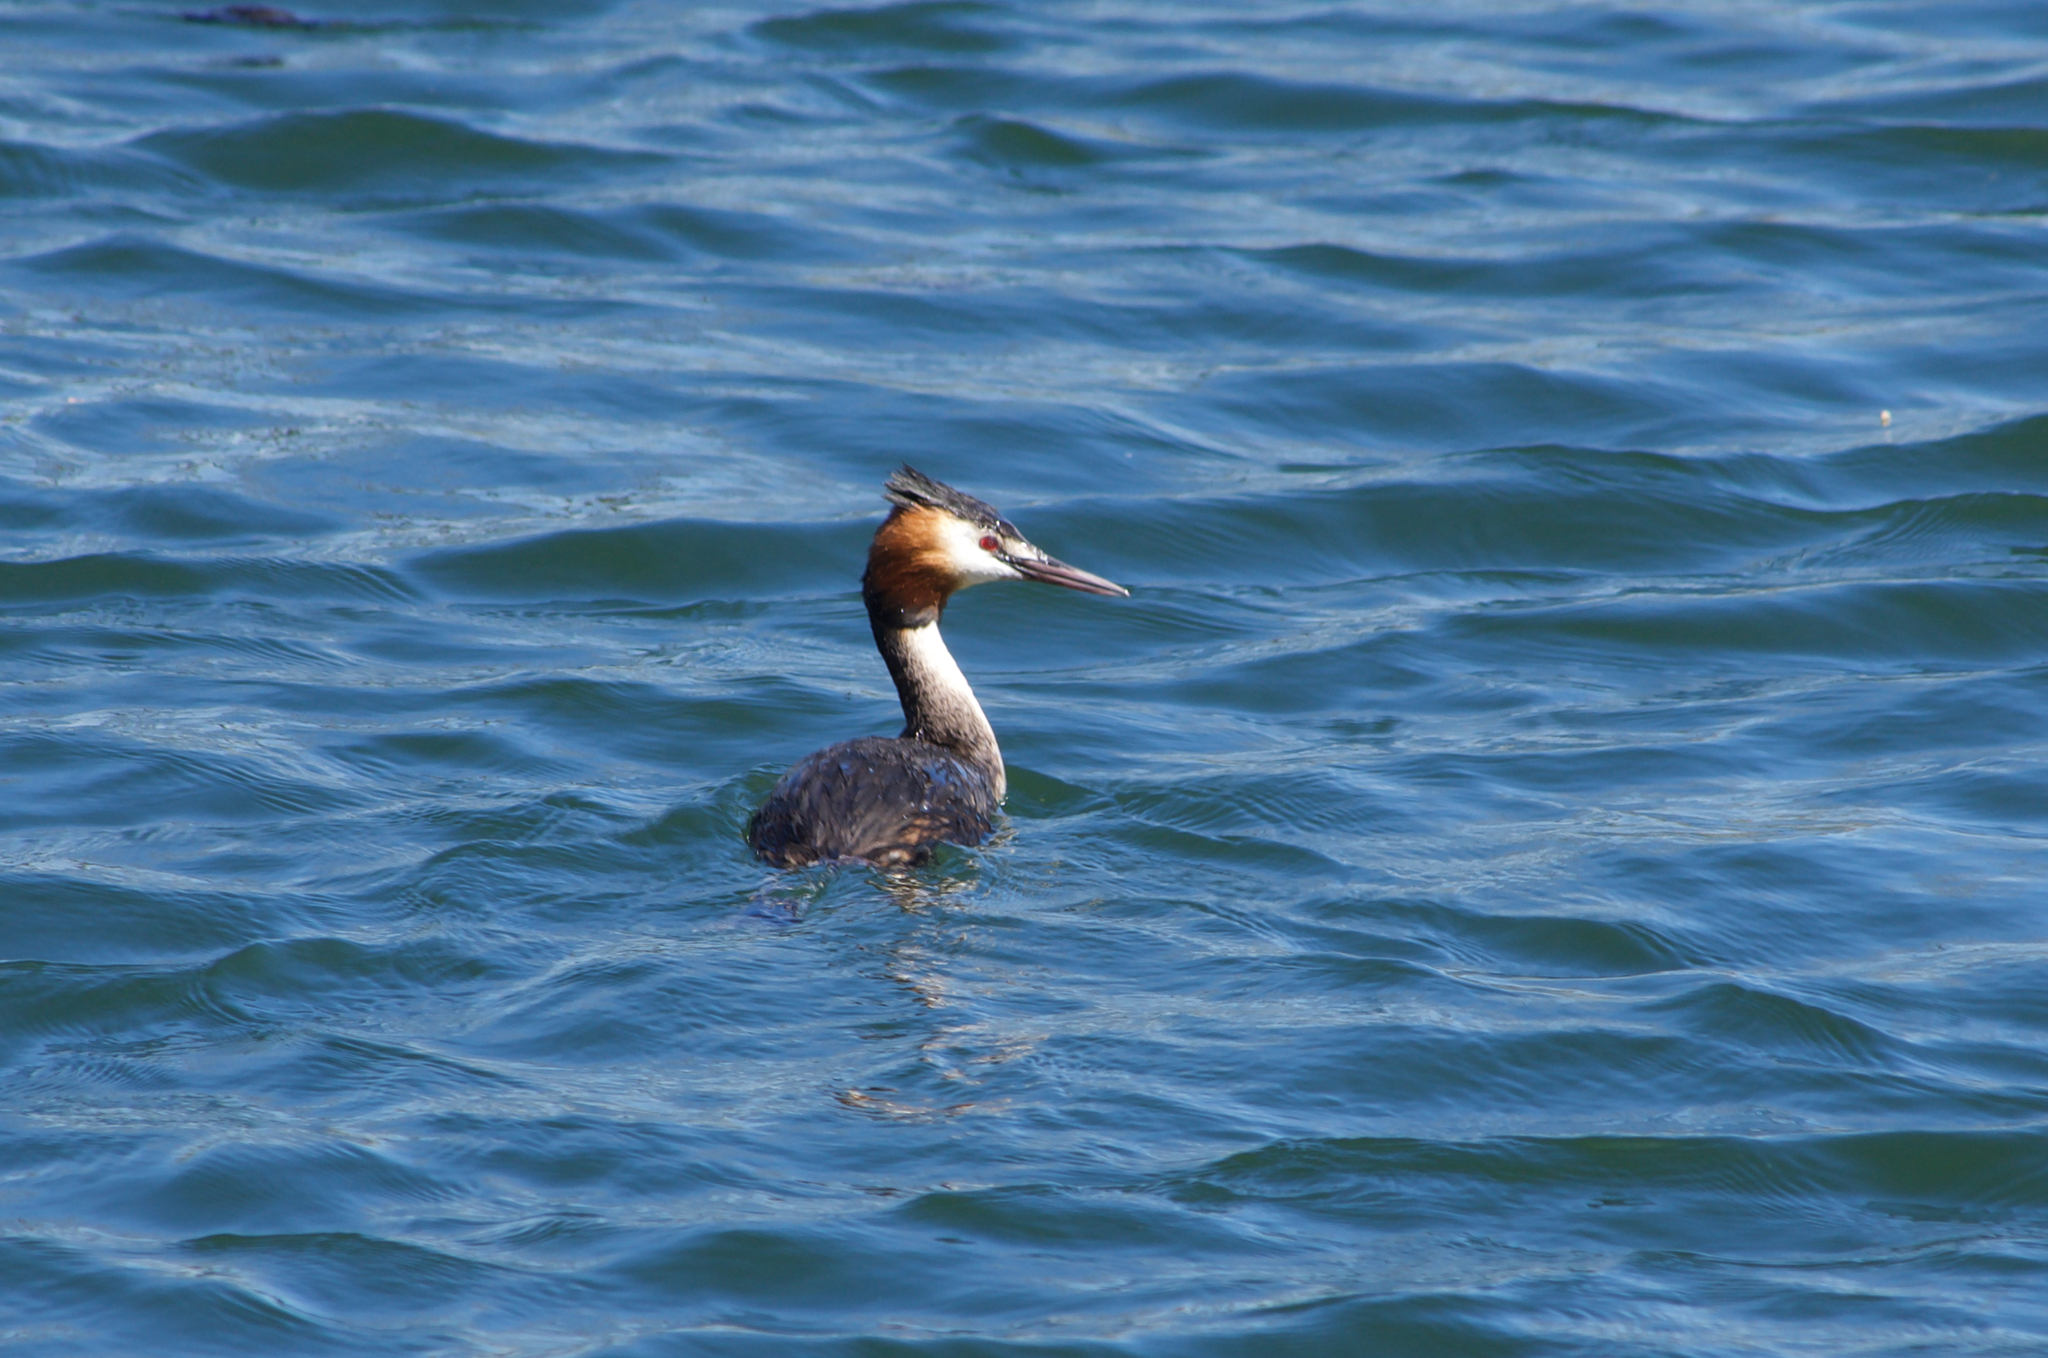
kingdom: Animalia
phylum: Chordata
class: Aves
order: Podicipediformes
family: Podicipedidae
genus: Podiceps
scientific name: Podiceps cristatus
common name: Great crested grebe
